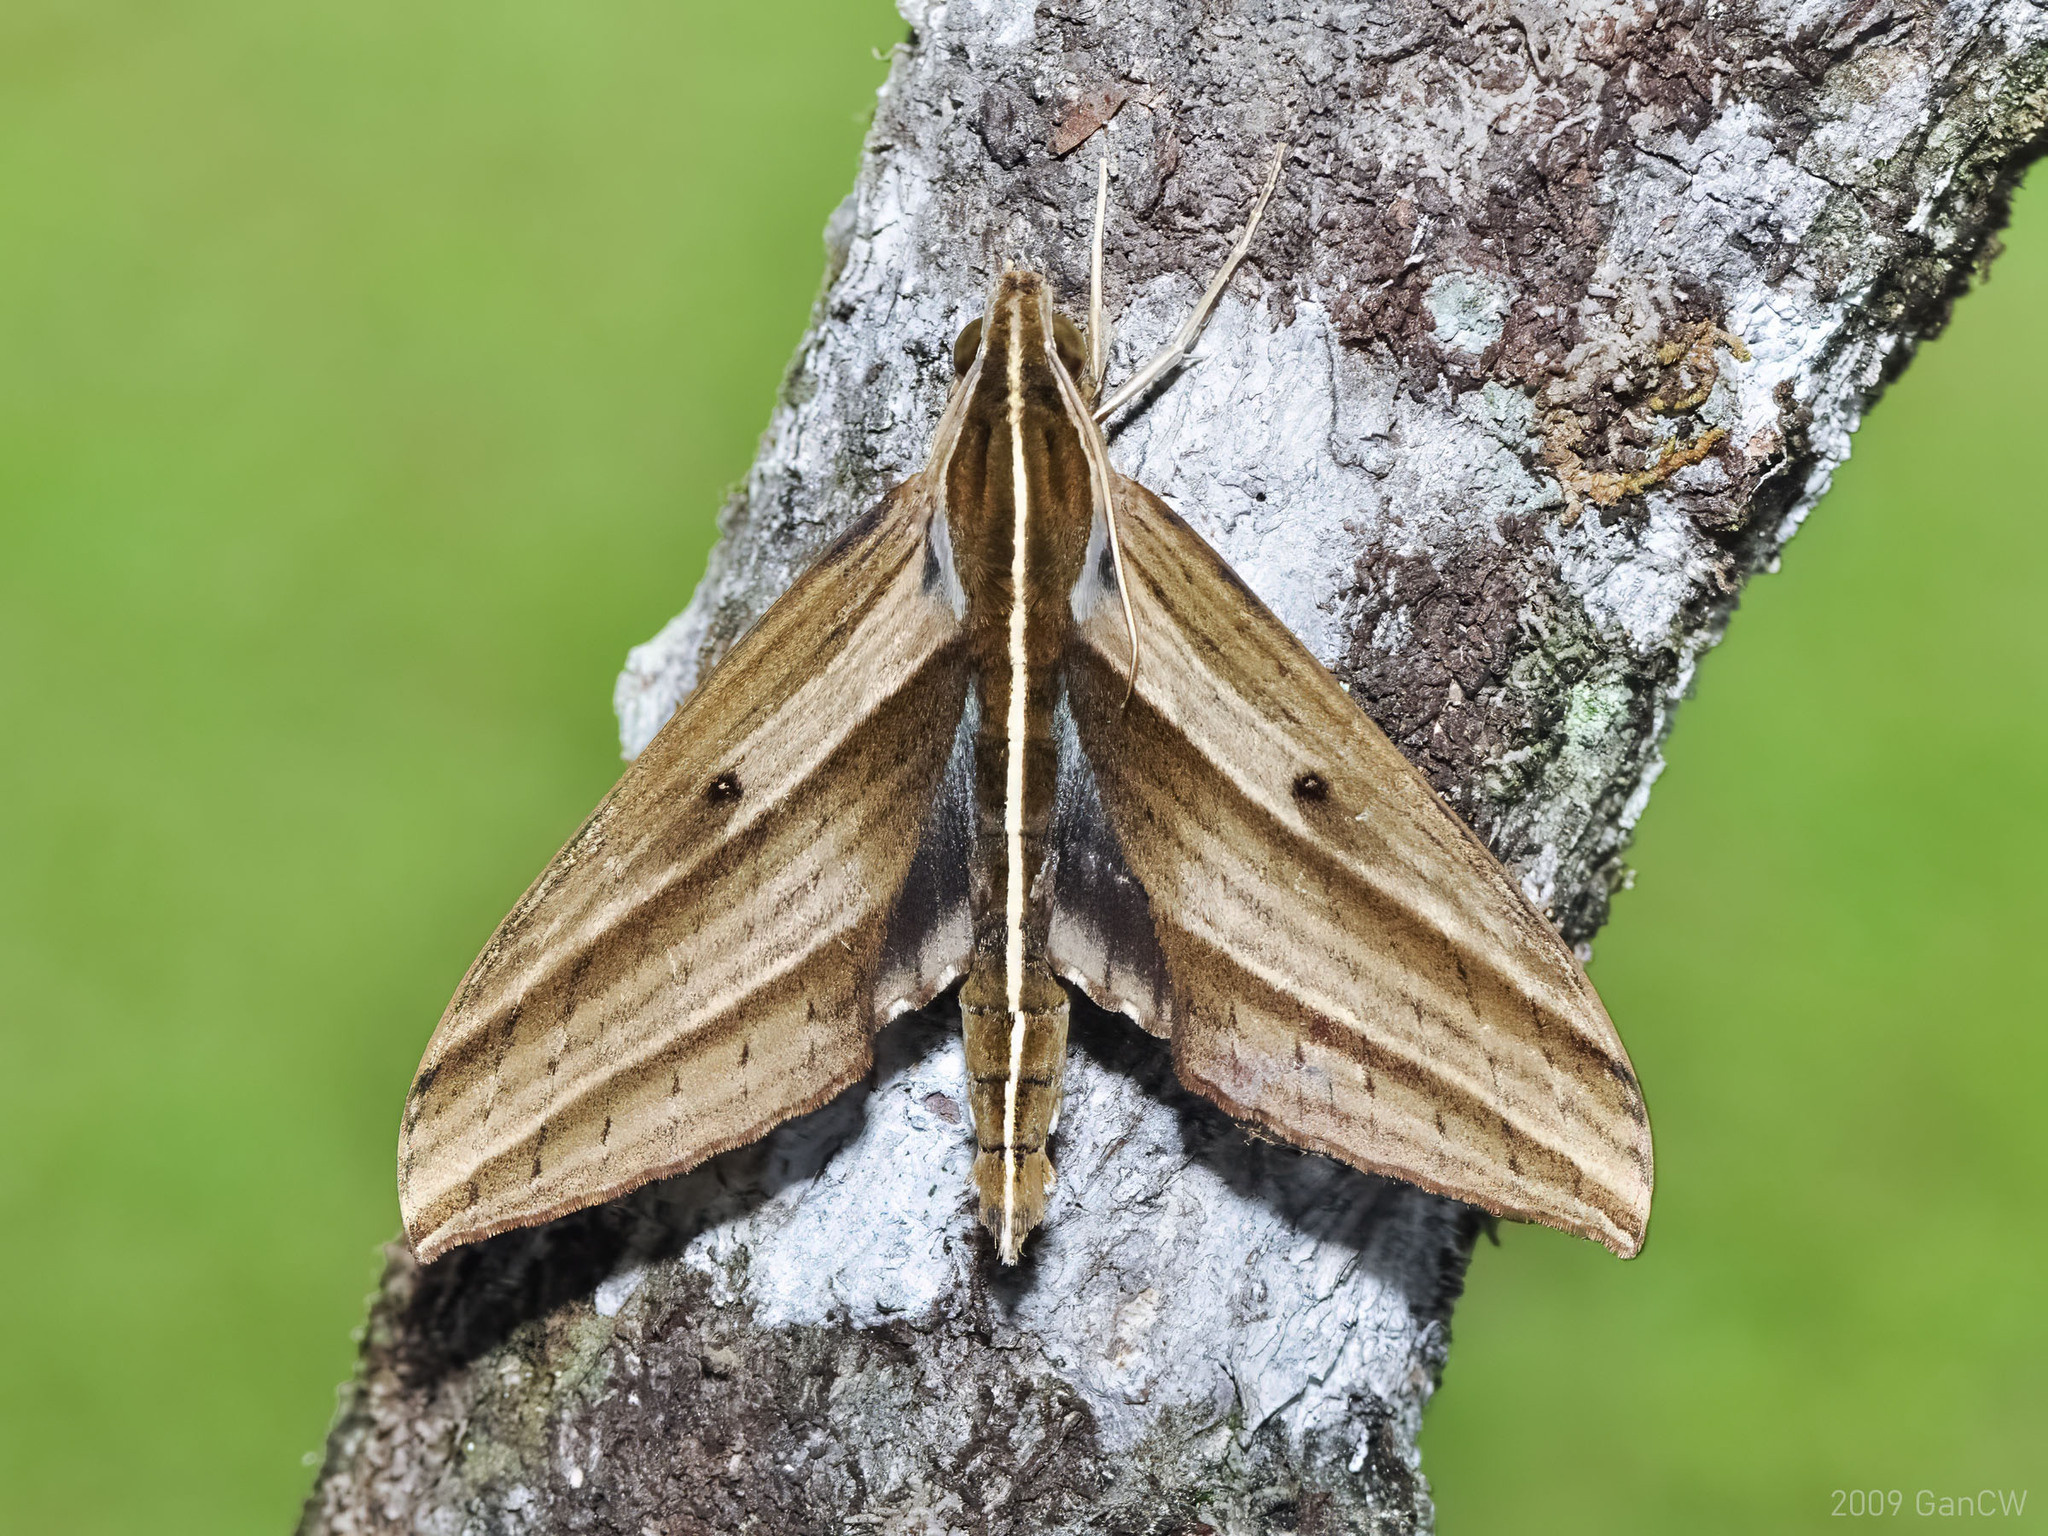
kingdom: Animalia
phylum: Arthropoda
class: Insecta
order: Lepidoptera
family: Sphingidae
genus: Elibia
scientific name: Elibia dolichus
